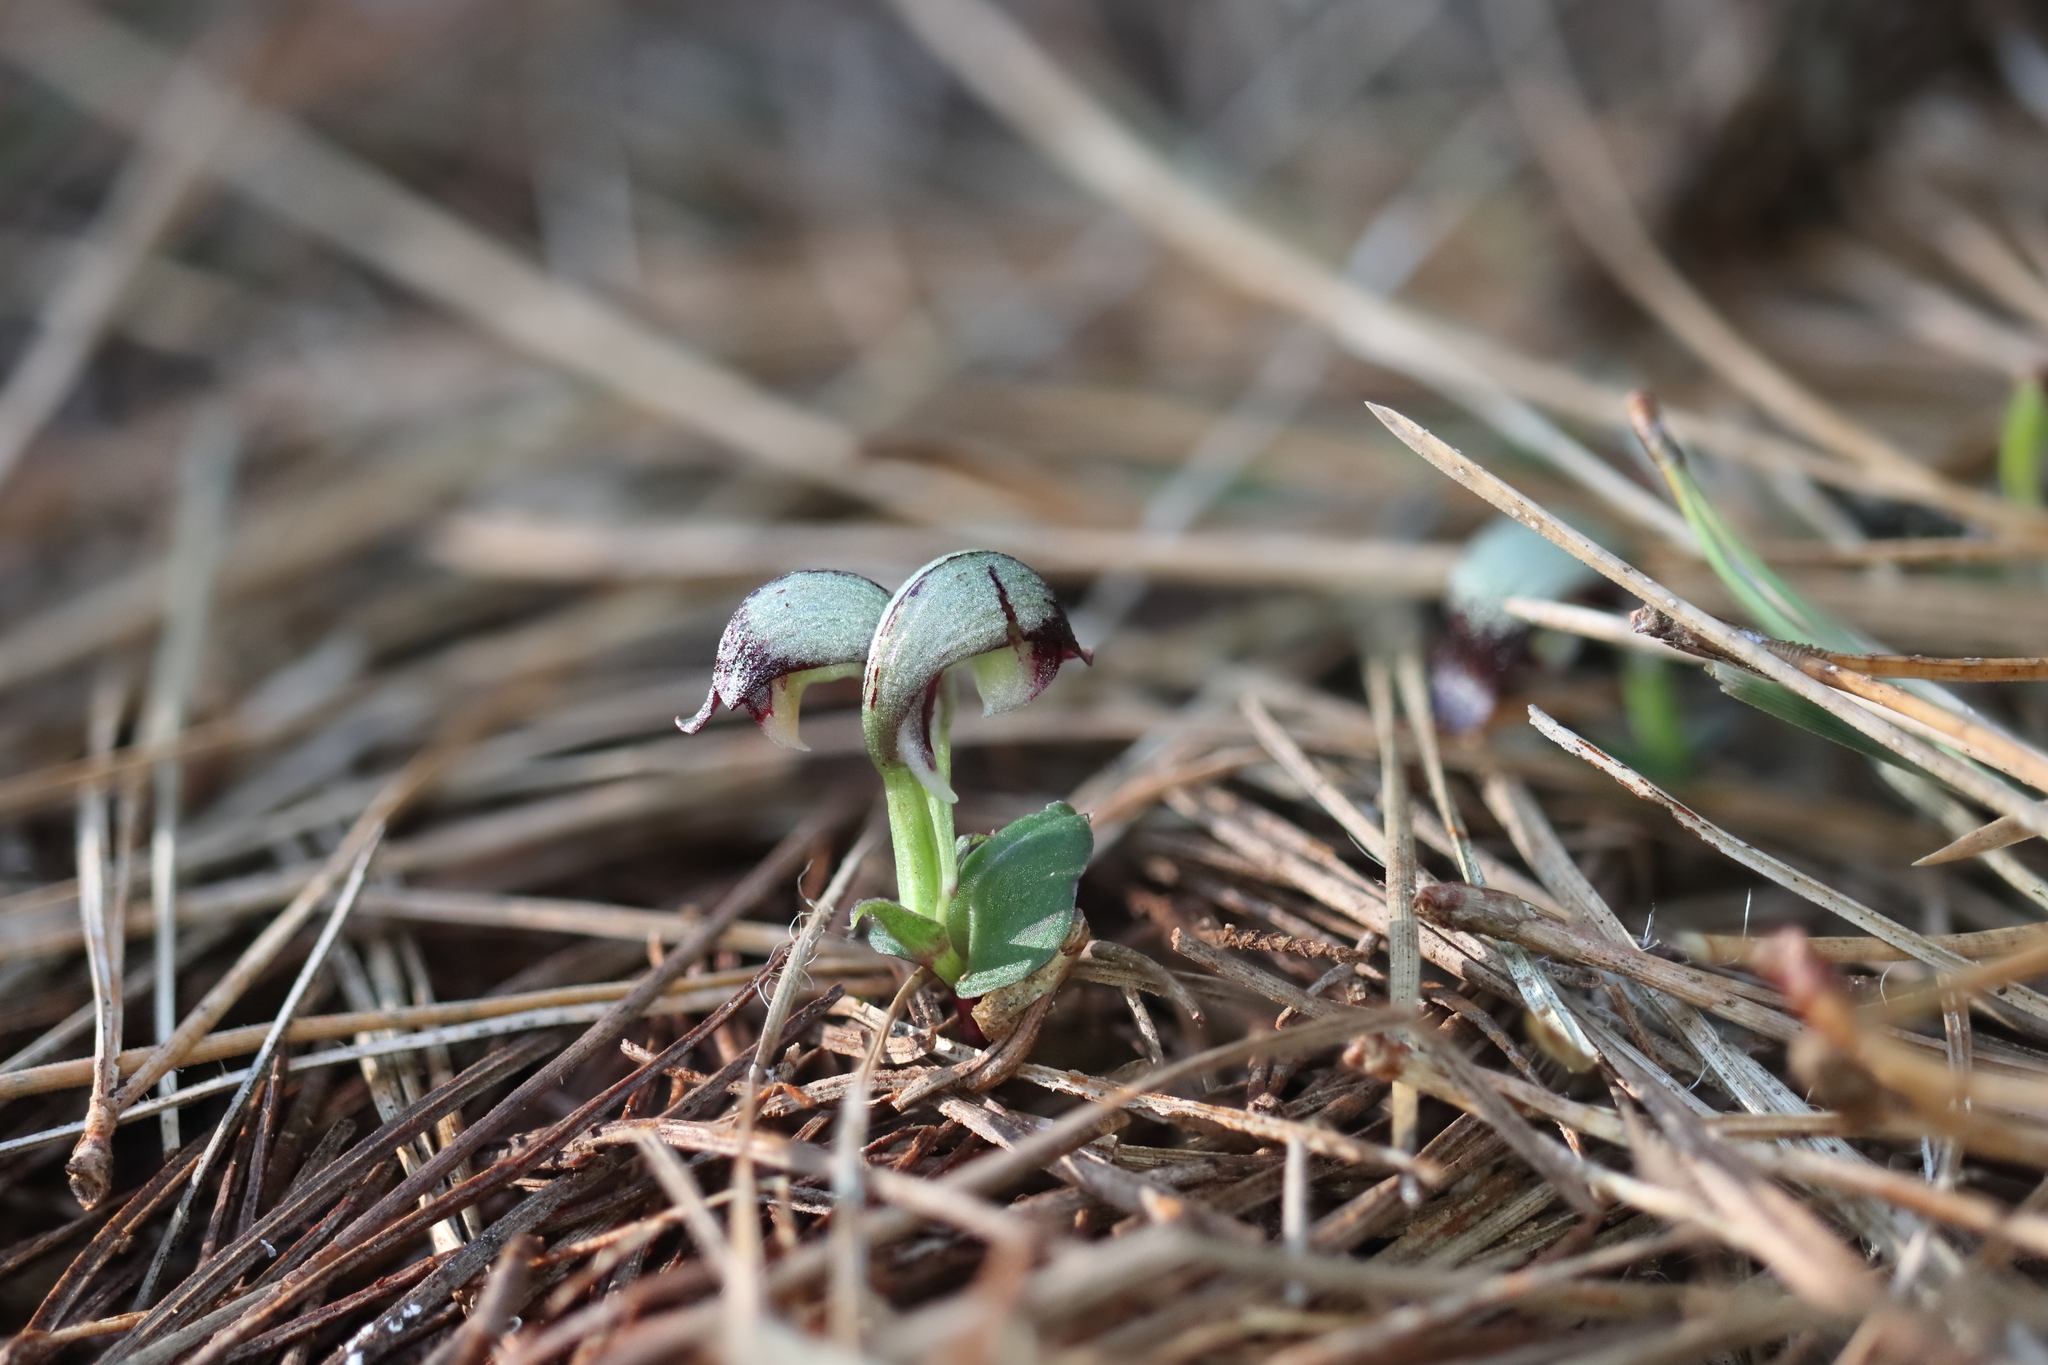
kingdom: Plantae
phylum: Tracheophyta
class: Liliopsida
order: Asparagales
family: Orchidaceae
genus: Corybas
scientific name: Corybas cheesemanii
